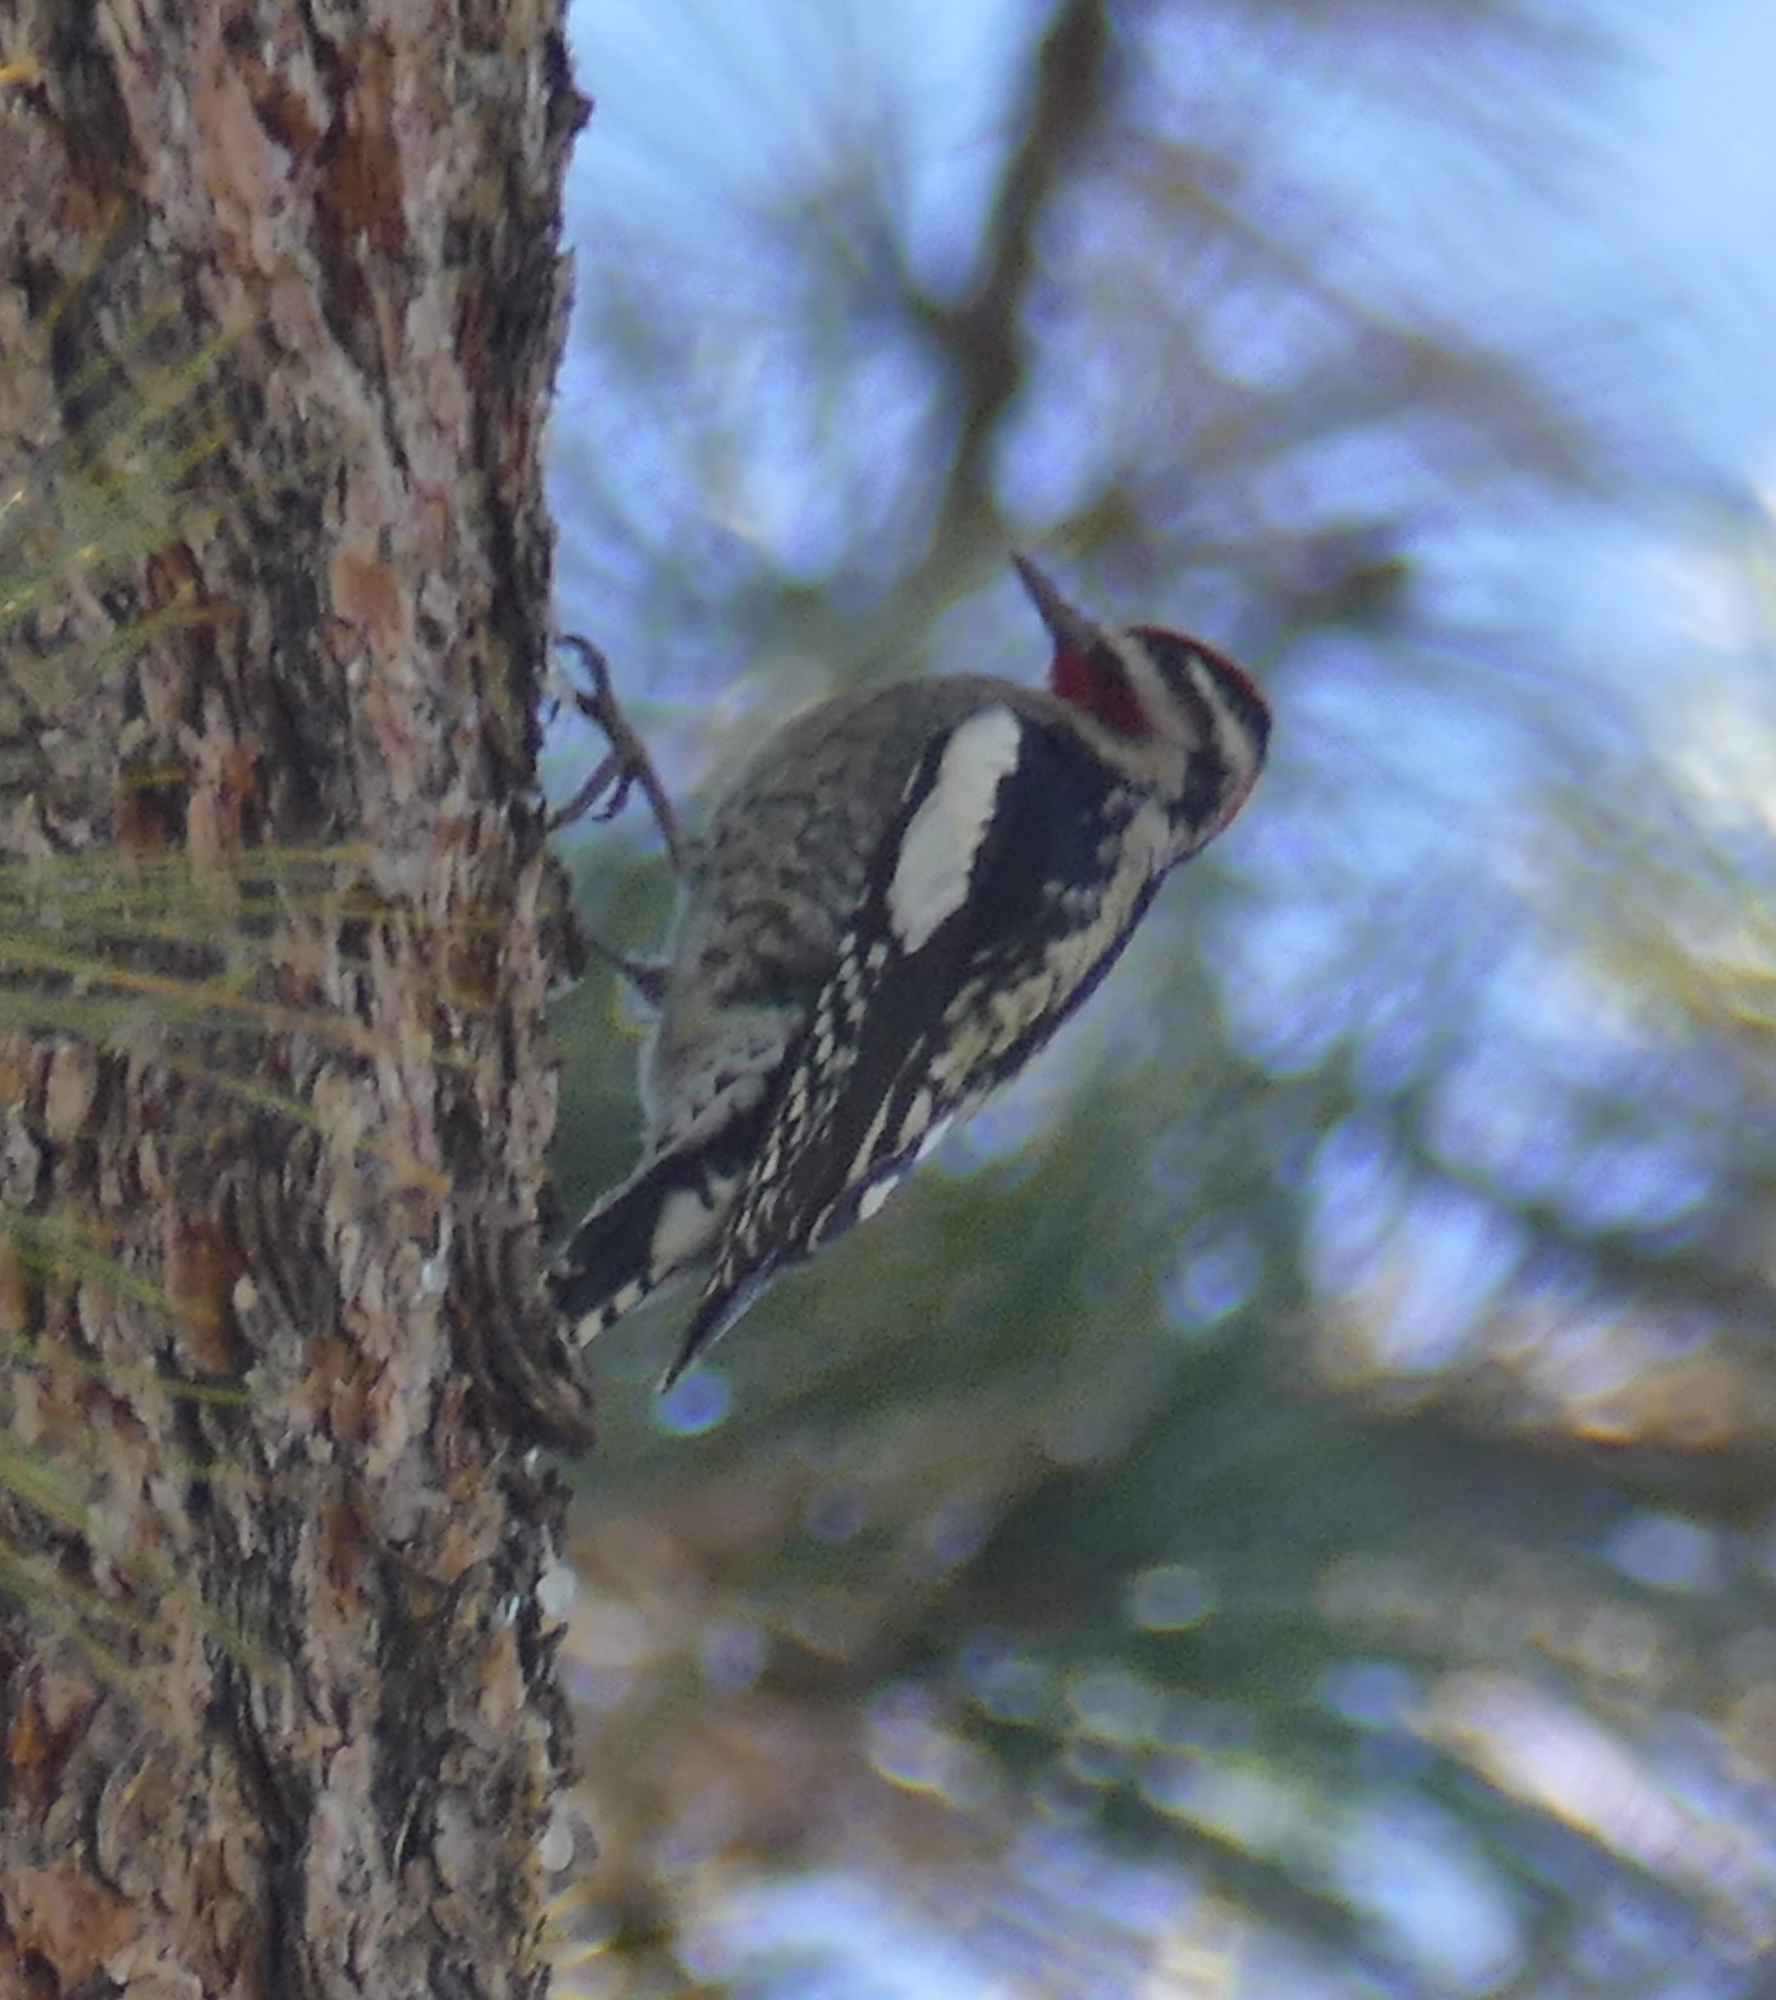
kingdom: Animalia
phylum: Chordata
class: Aves
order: Piciformes
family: Picidae
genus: Sphyrapicus
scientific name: Sphyrapicus nuchalis
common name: Red-naped sapsucker
